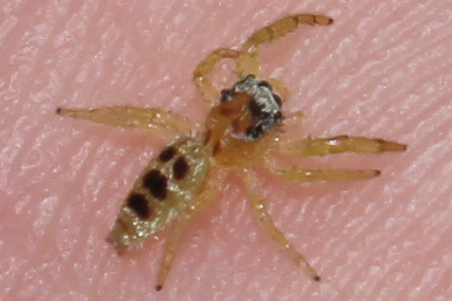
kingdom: Animalia
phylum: Arthropoda
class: Arachnida
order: Araneae
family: Salticidae
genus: Hentzia
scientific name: Hentzia
